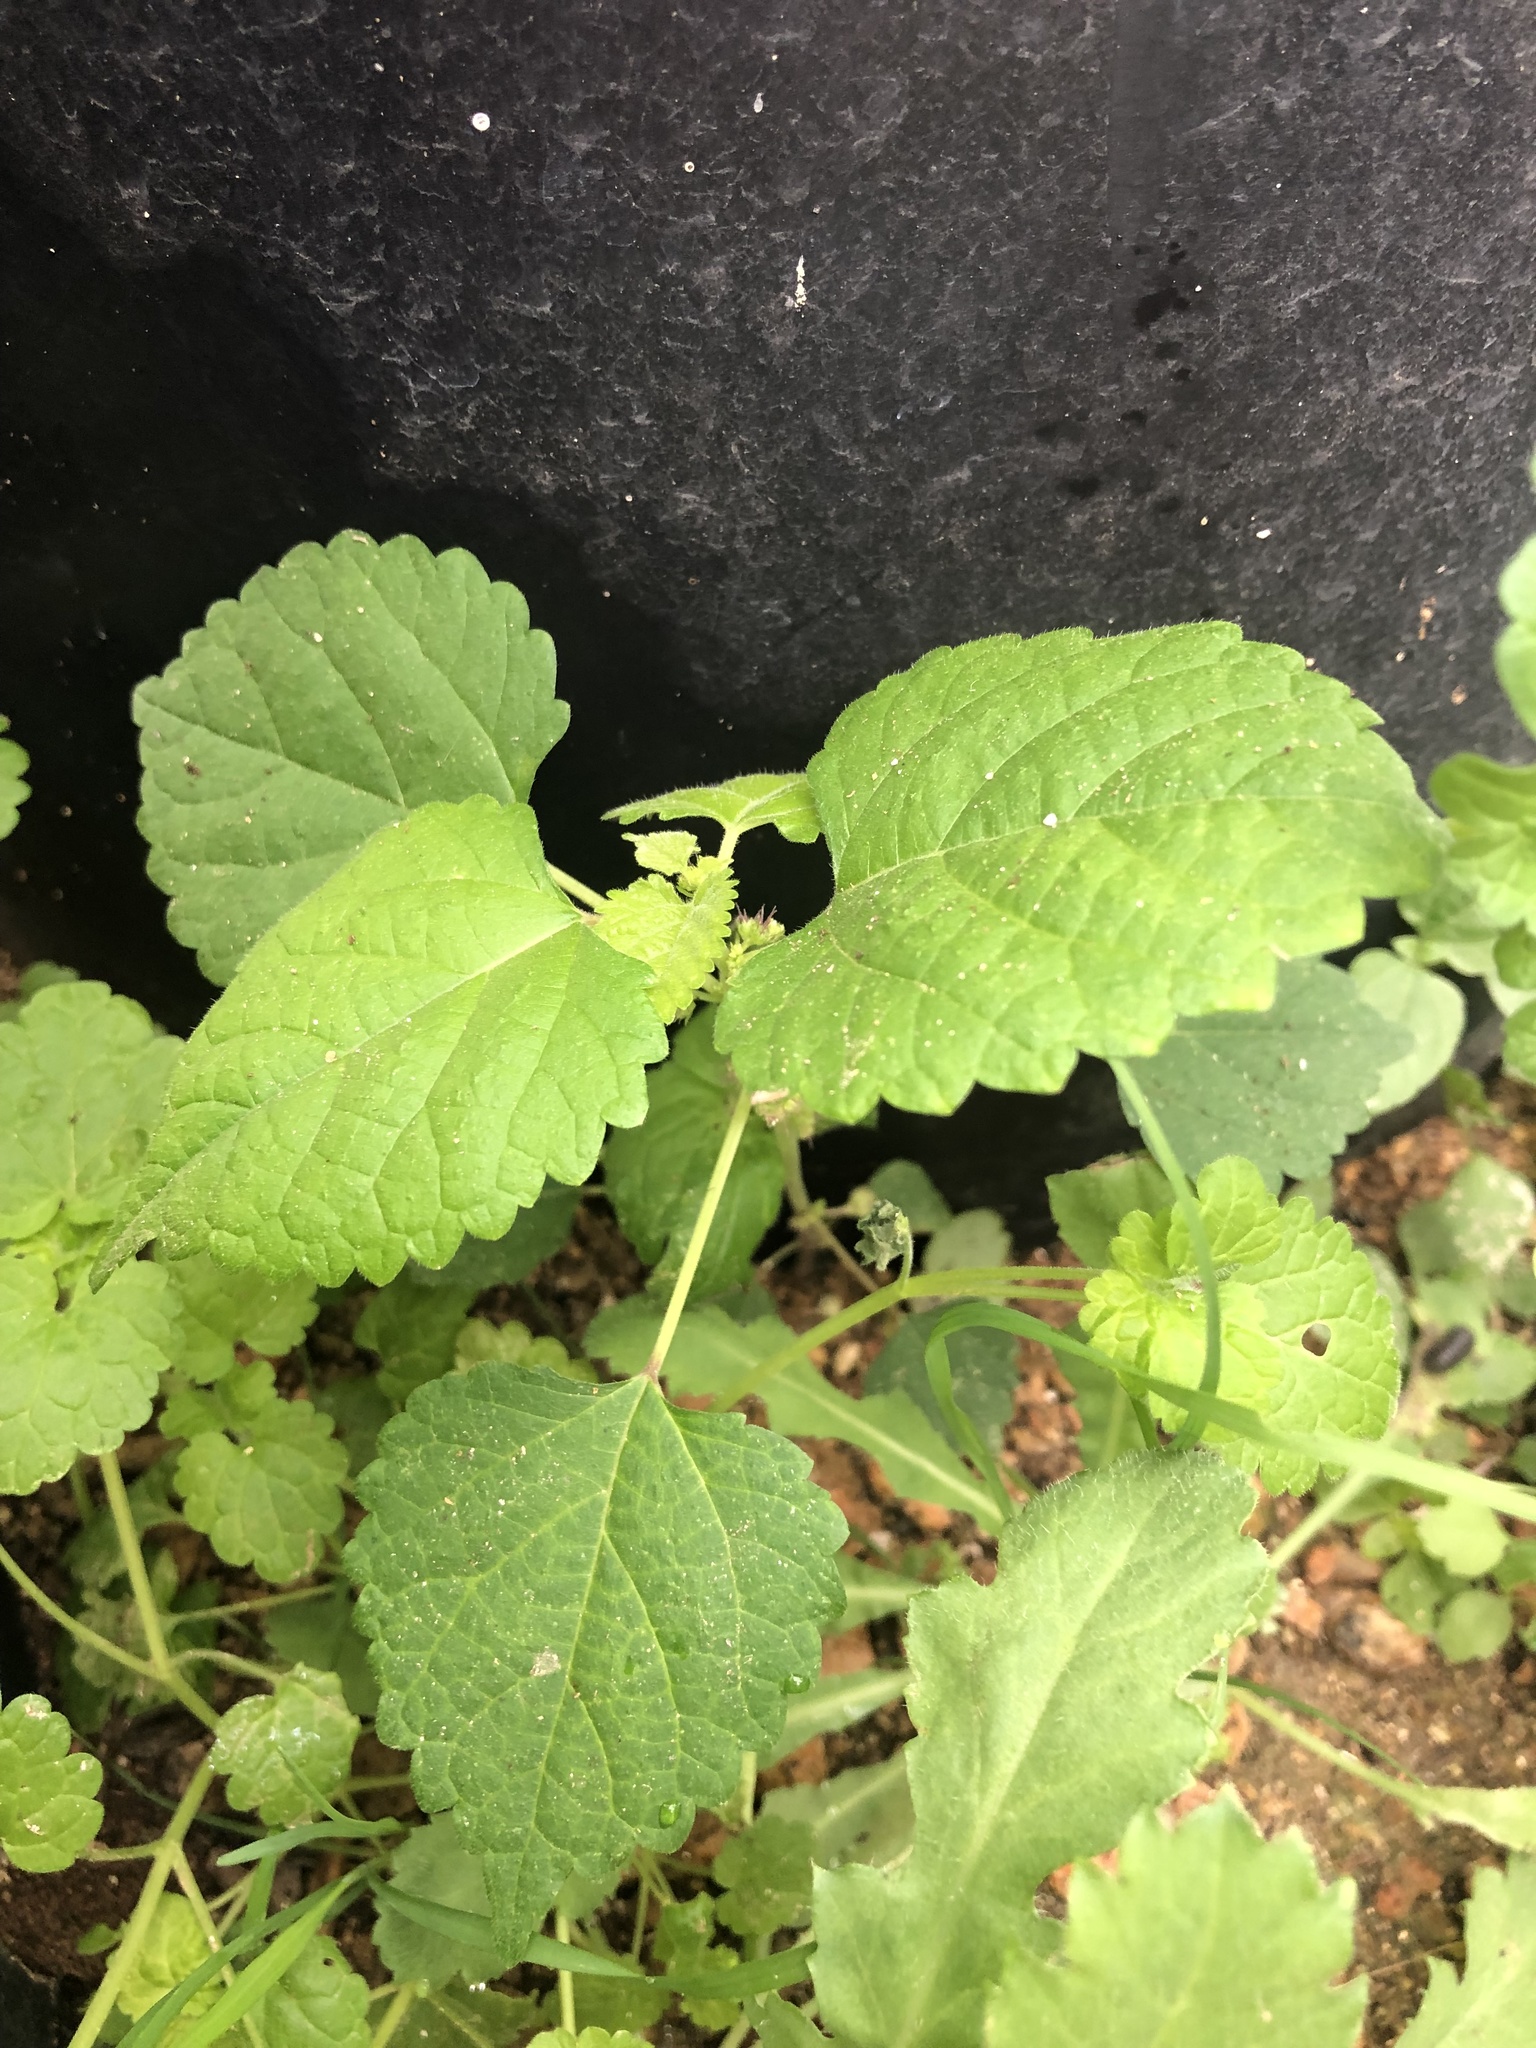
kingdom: Plantae
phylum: Tracheophyta
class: Magnoliopsida
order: Rosales
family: Moraceae
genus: Fatoua
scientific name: Fatoua villosa
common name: Hairy crabweed
